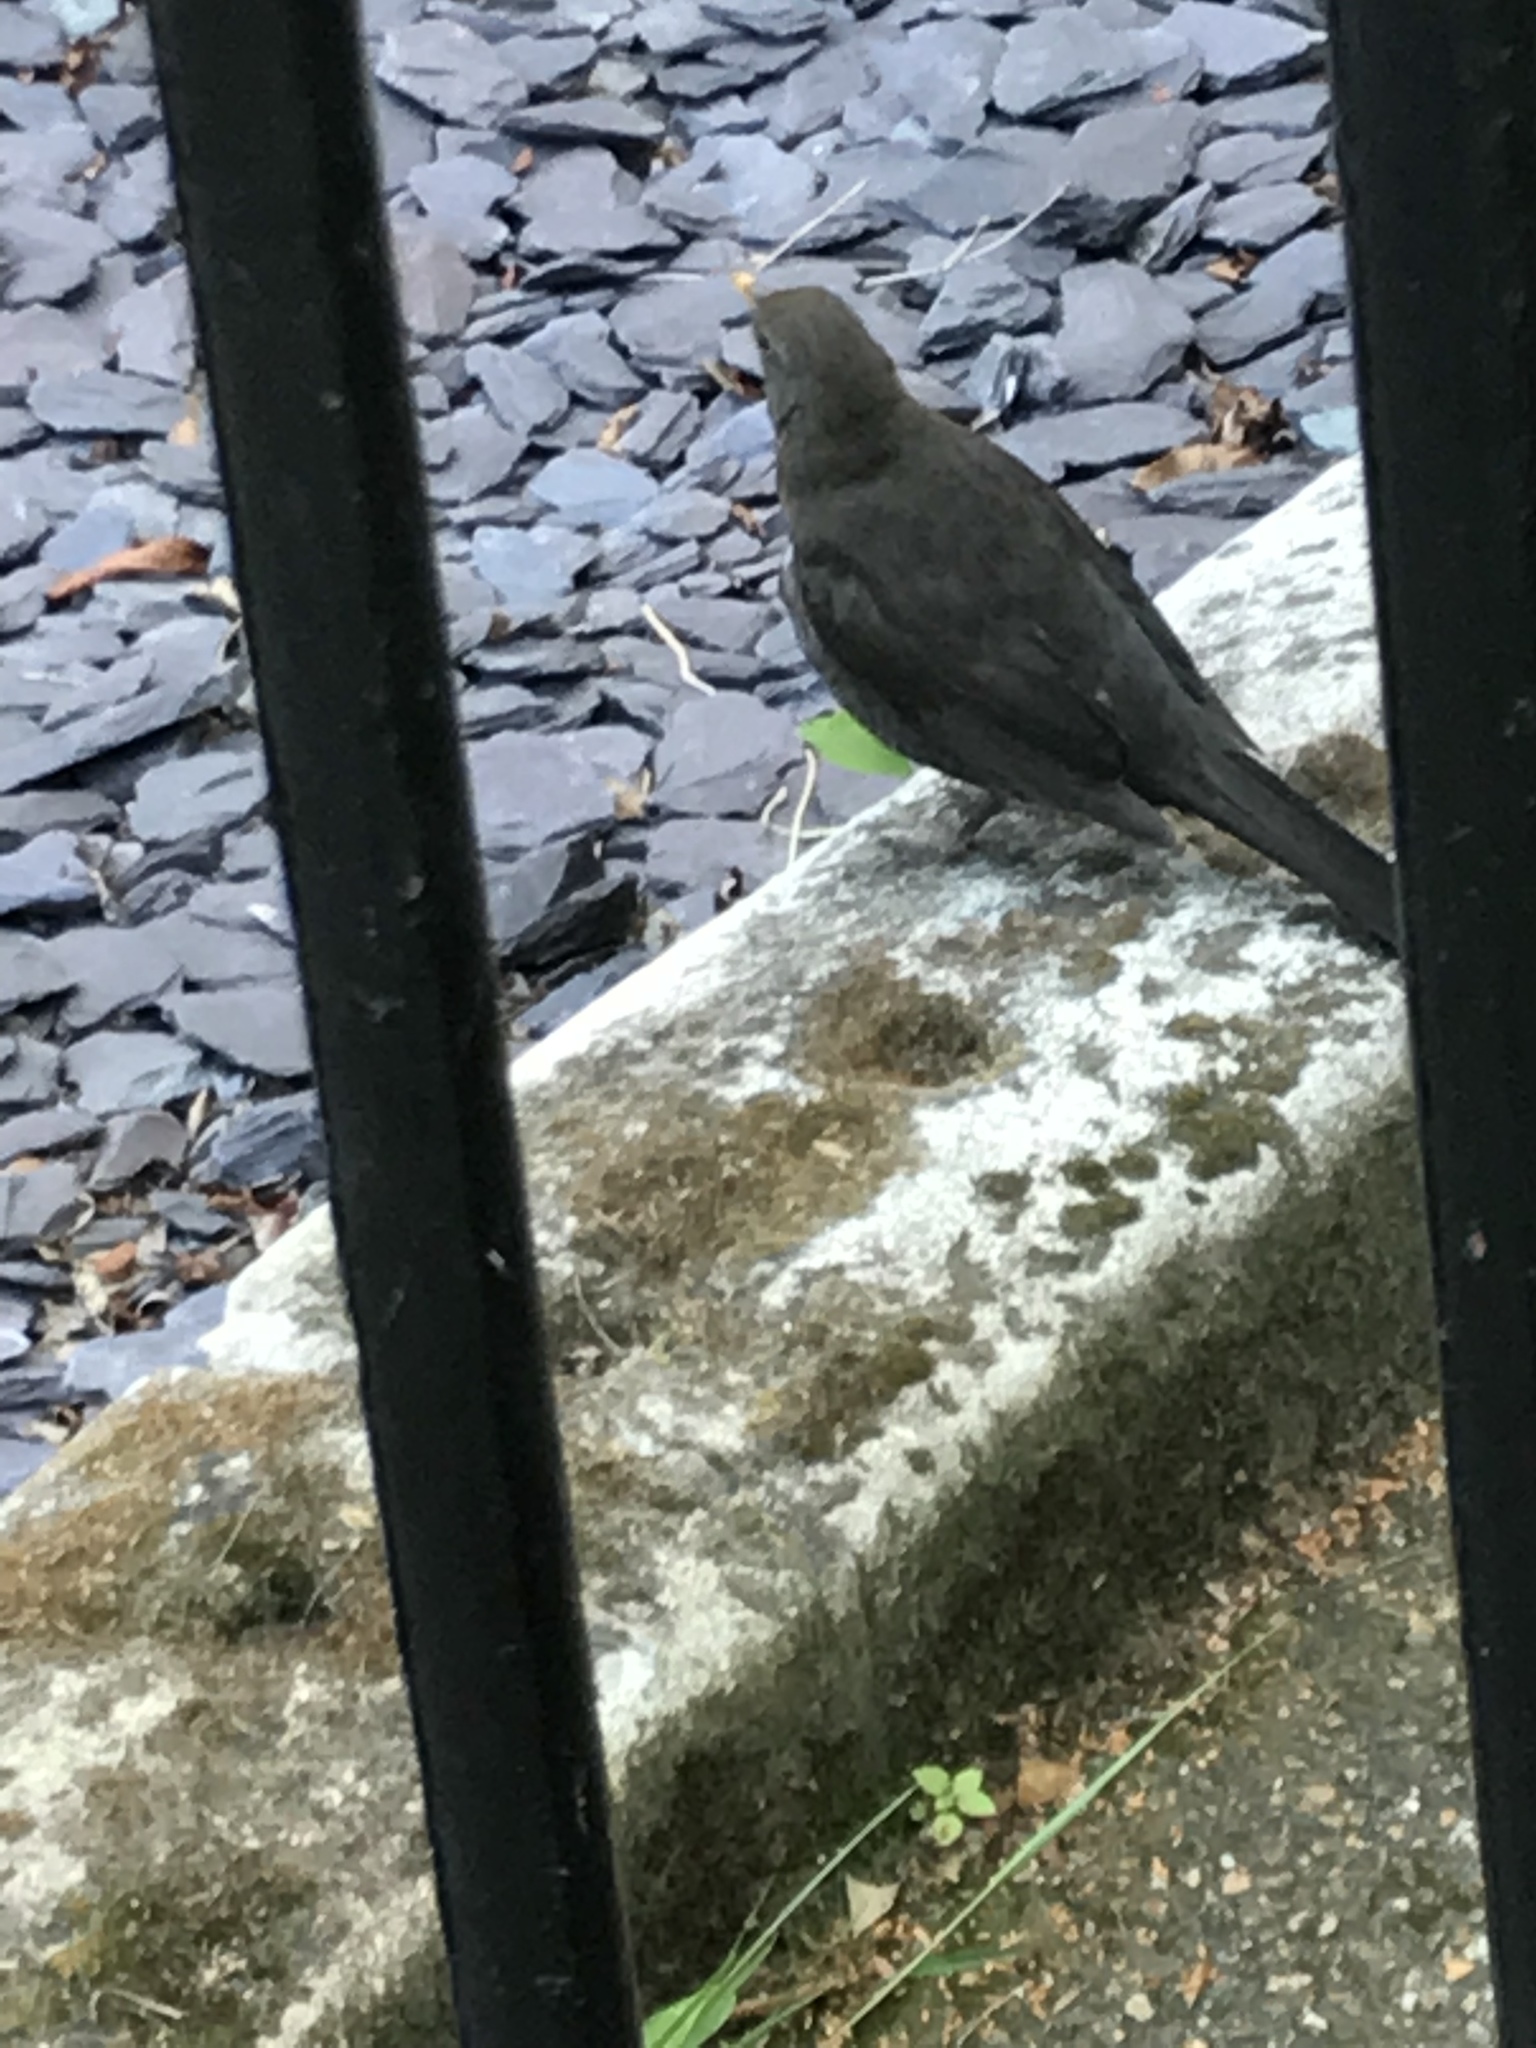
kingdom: Animalia
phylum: Chordata
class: Aves
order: Passeriformes
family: Turdidae
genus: Turdus
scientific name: Turdus merula
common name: Common blackbird
